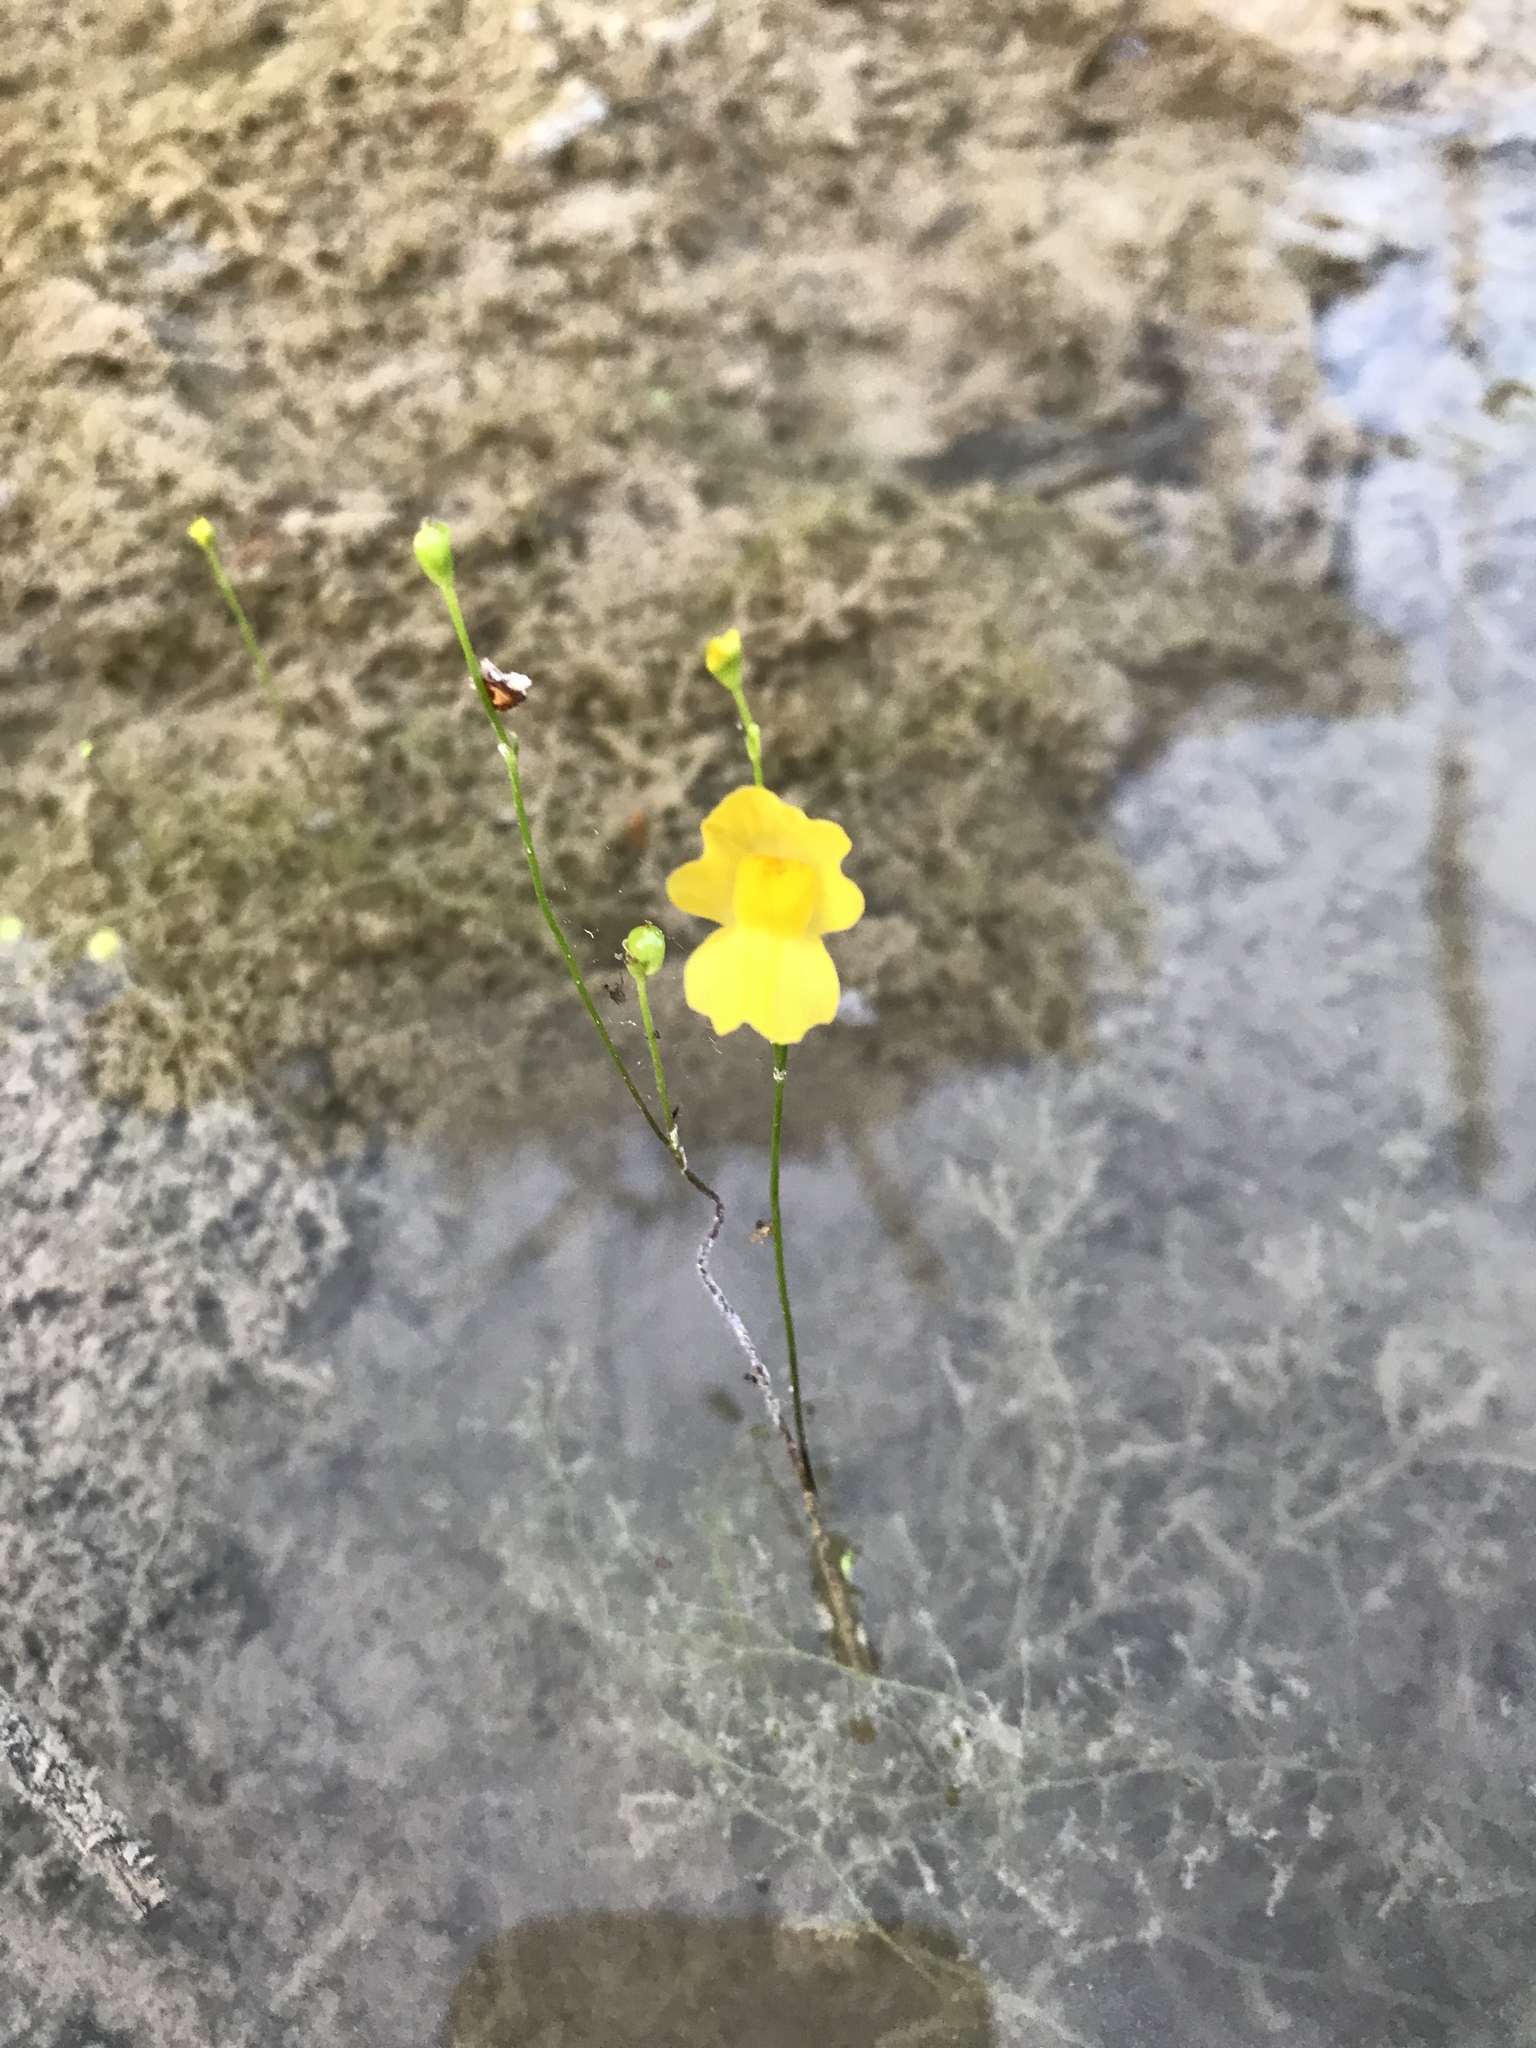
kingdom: Plantae
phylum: Tracheophyta
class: Magnoliopsida
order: Lamiales
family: Lentibulariaceae
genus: Utricularia
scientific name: Utricularia gibba
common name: Humped bladderwort
